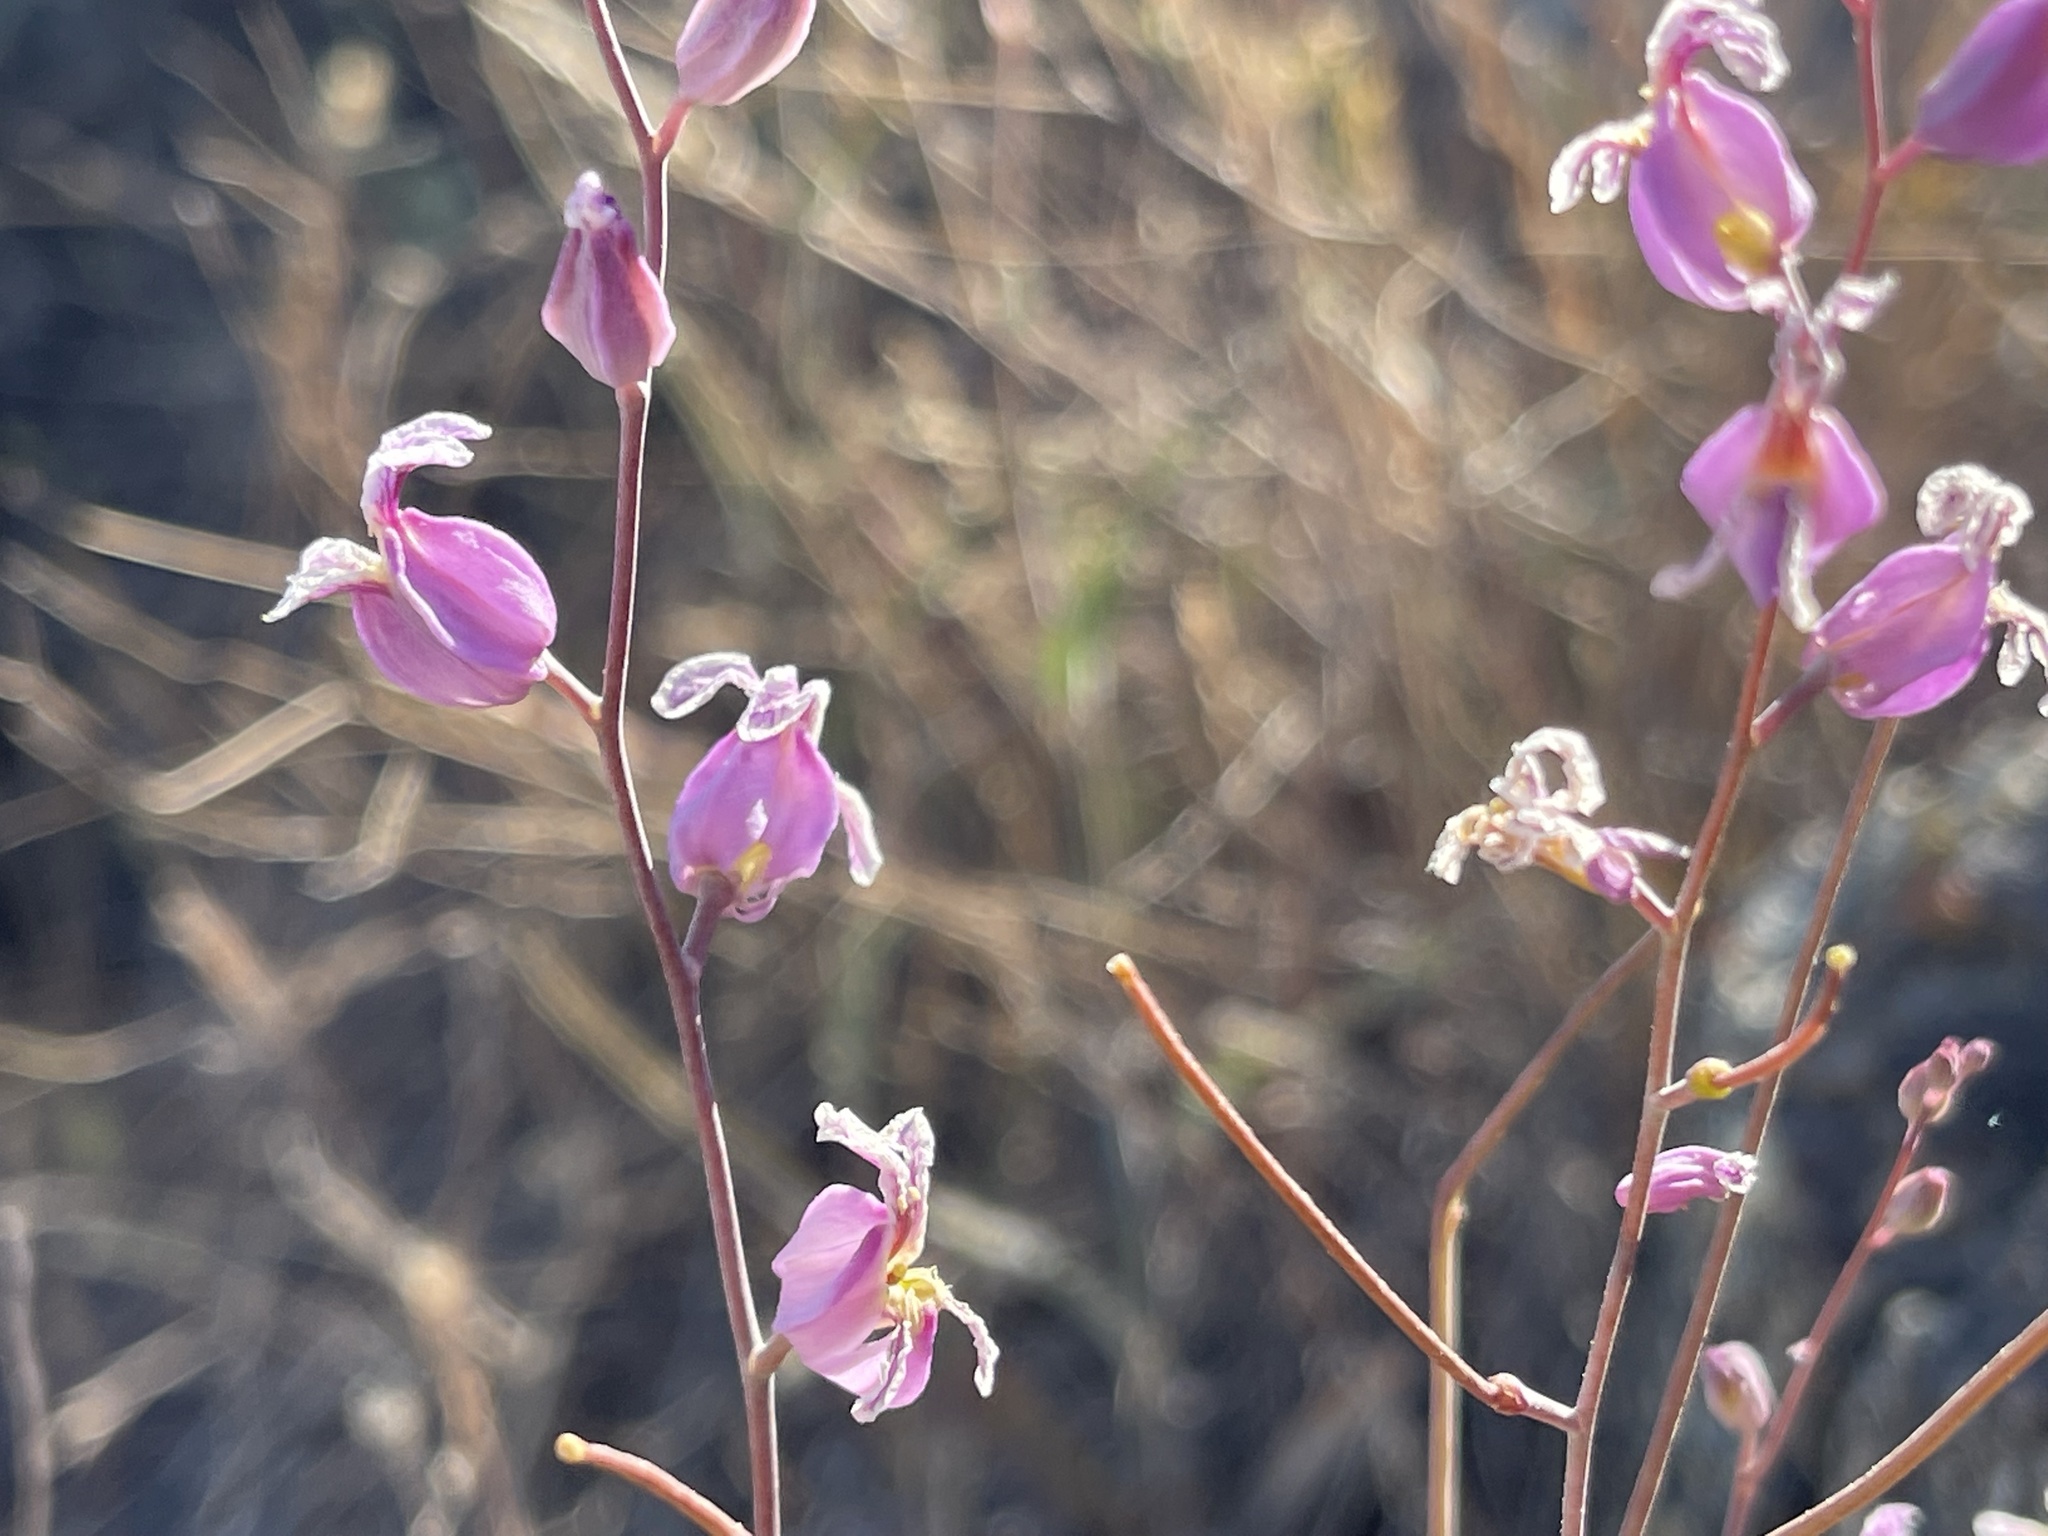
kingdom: Plantae
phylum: Tracheophyta
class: Magnoliopsida
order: Brassicales
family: Brassicaceae
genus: Streptanthus
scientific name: Streptanthus glandulosus
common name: Jewel-flower
